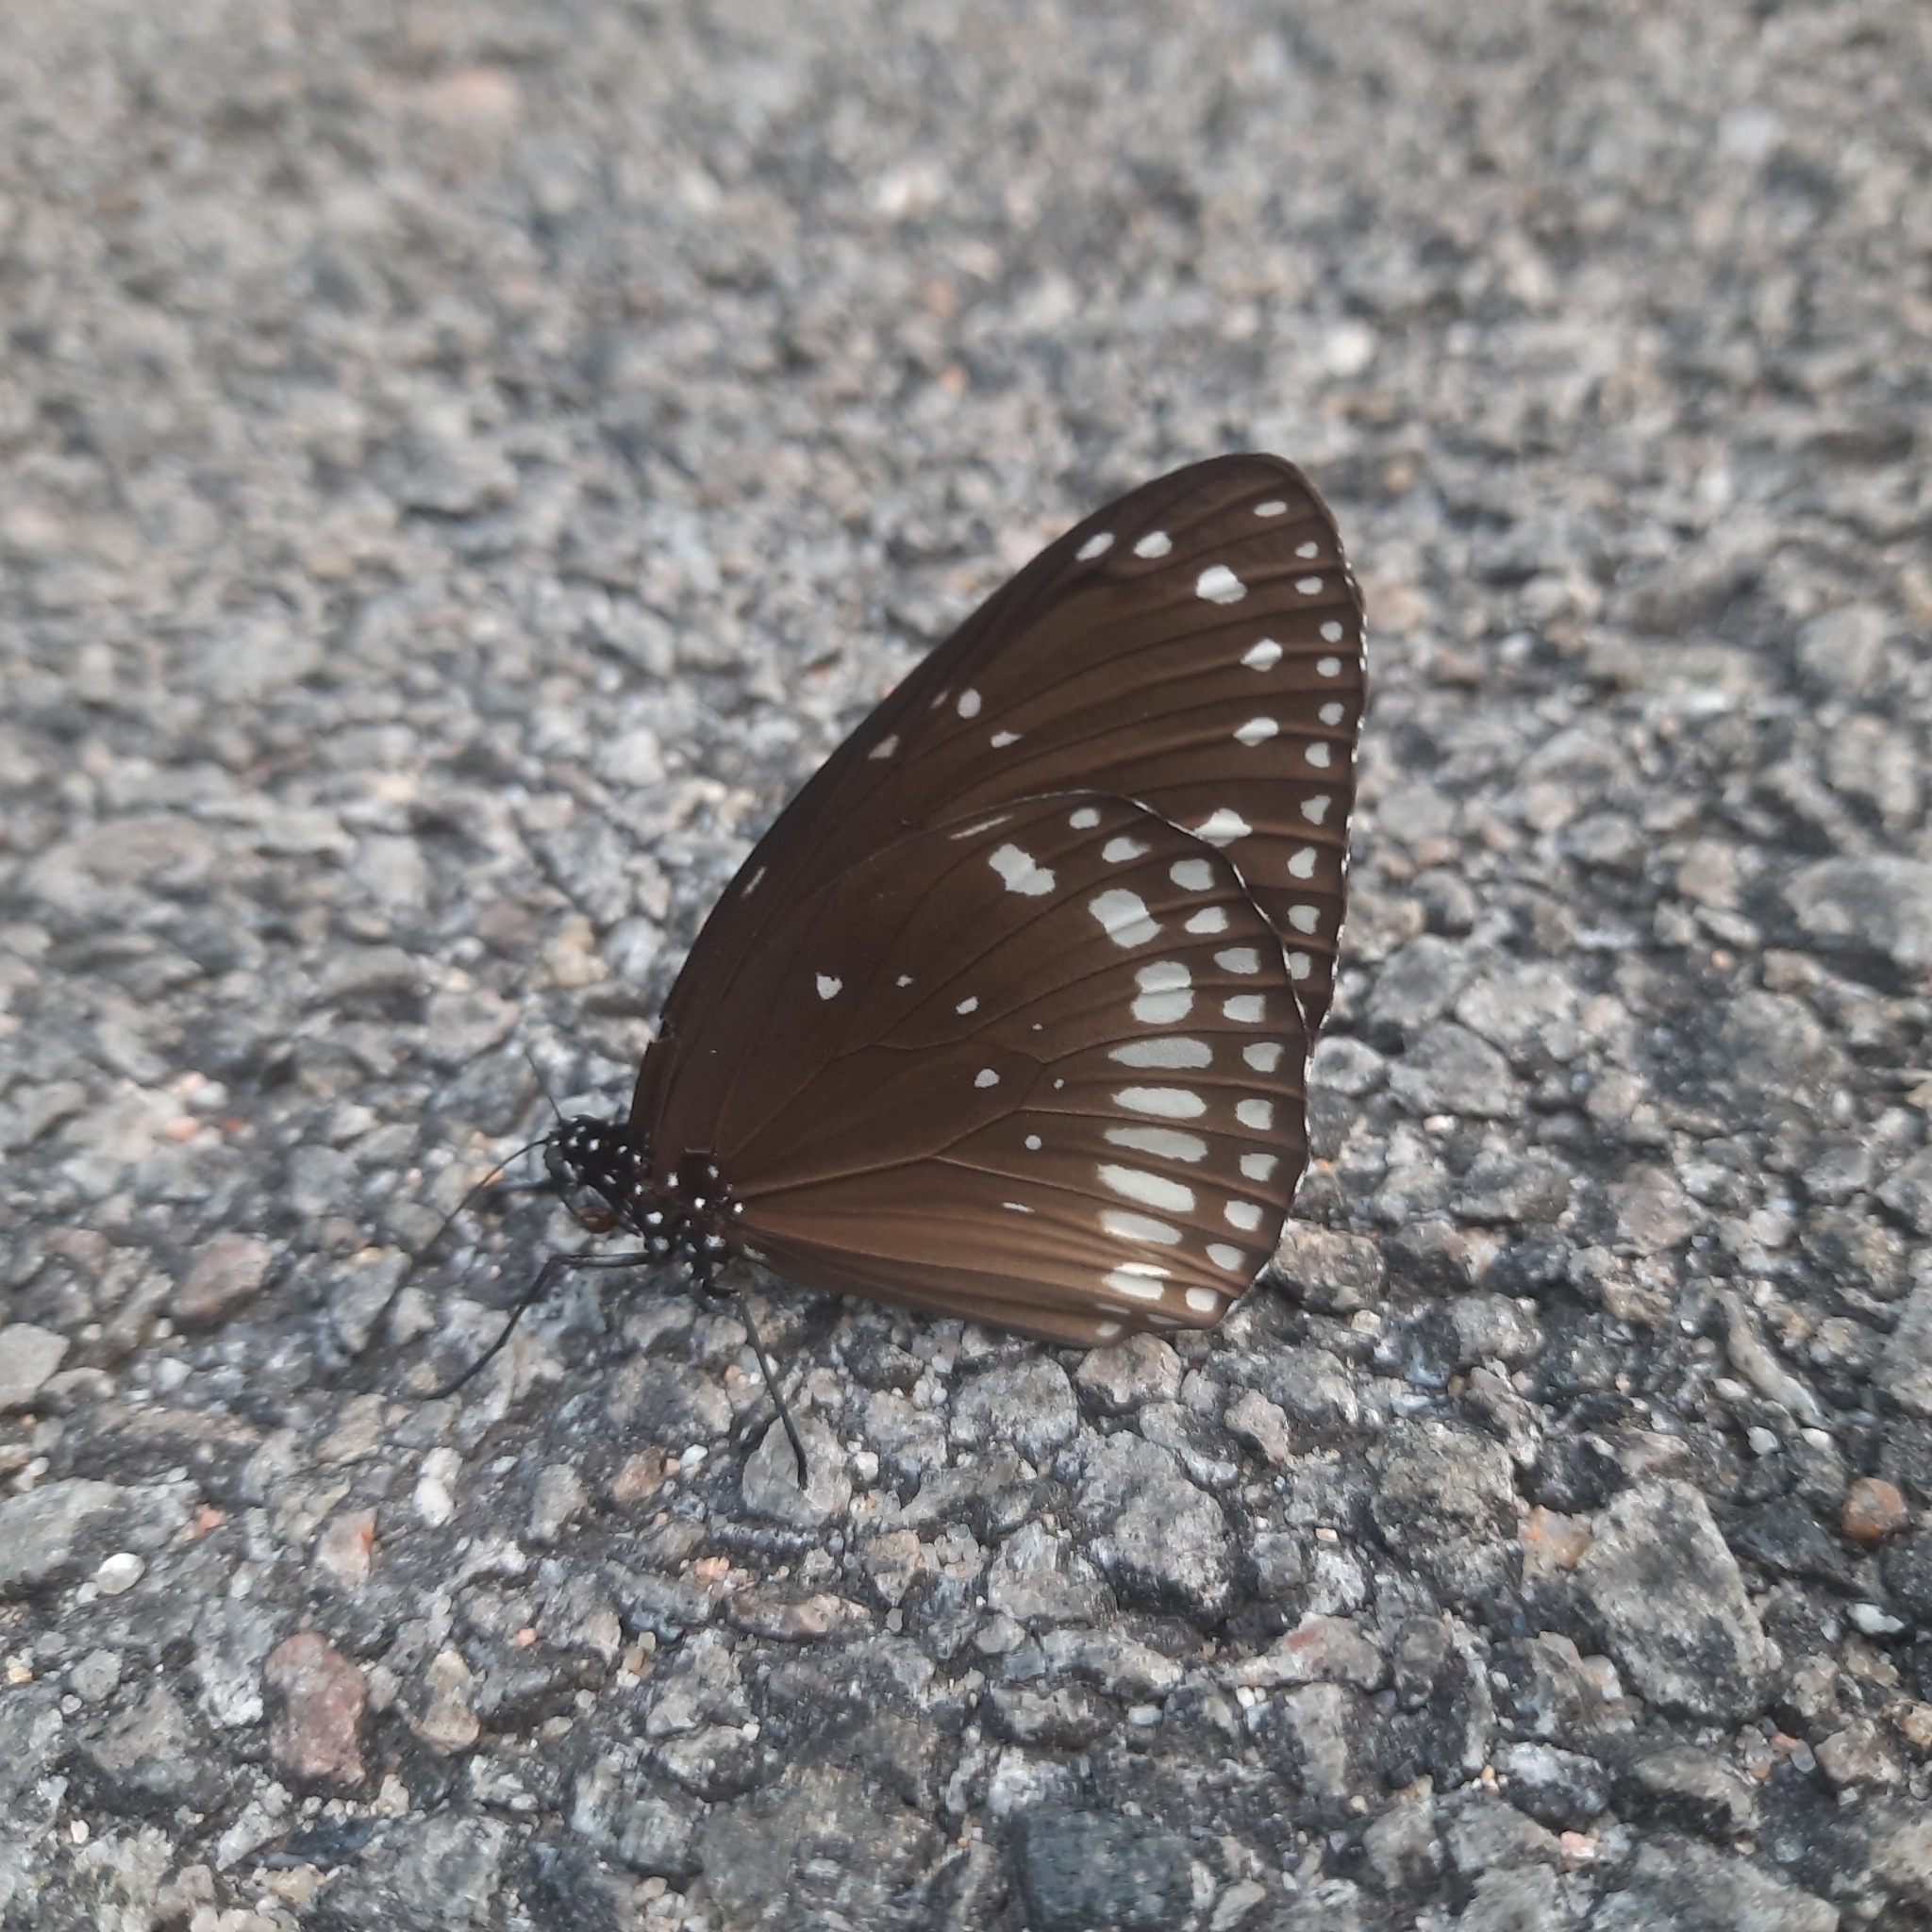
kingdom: Animalia
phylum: Arthropoda
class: Insecta
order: Lepidoptera
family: Nymphalidae
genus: Euploea
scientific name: Euploea core
